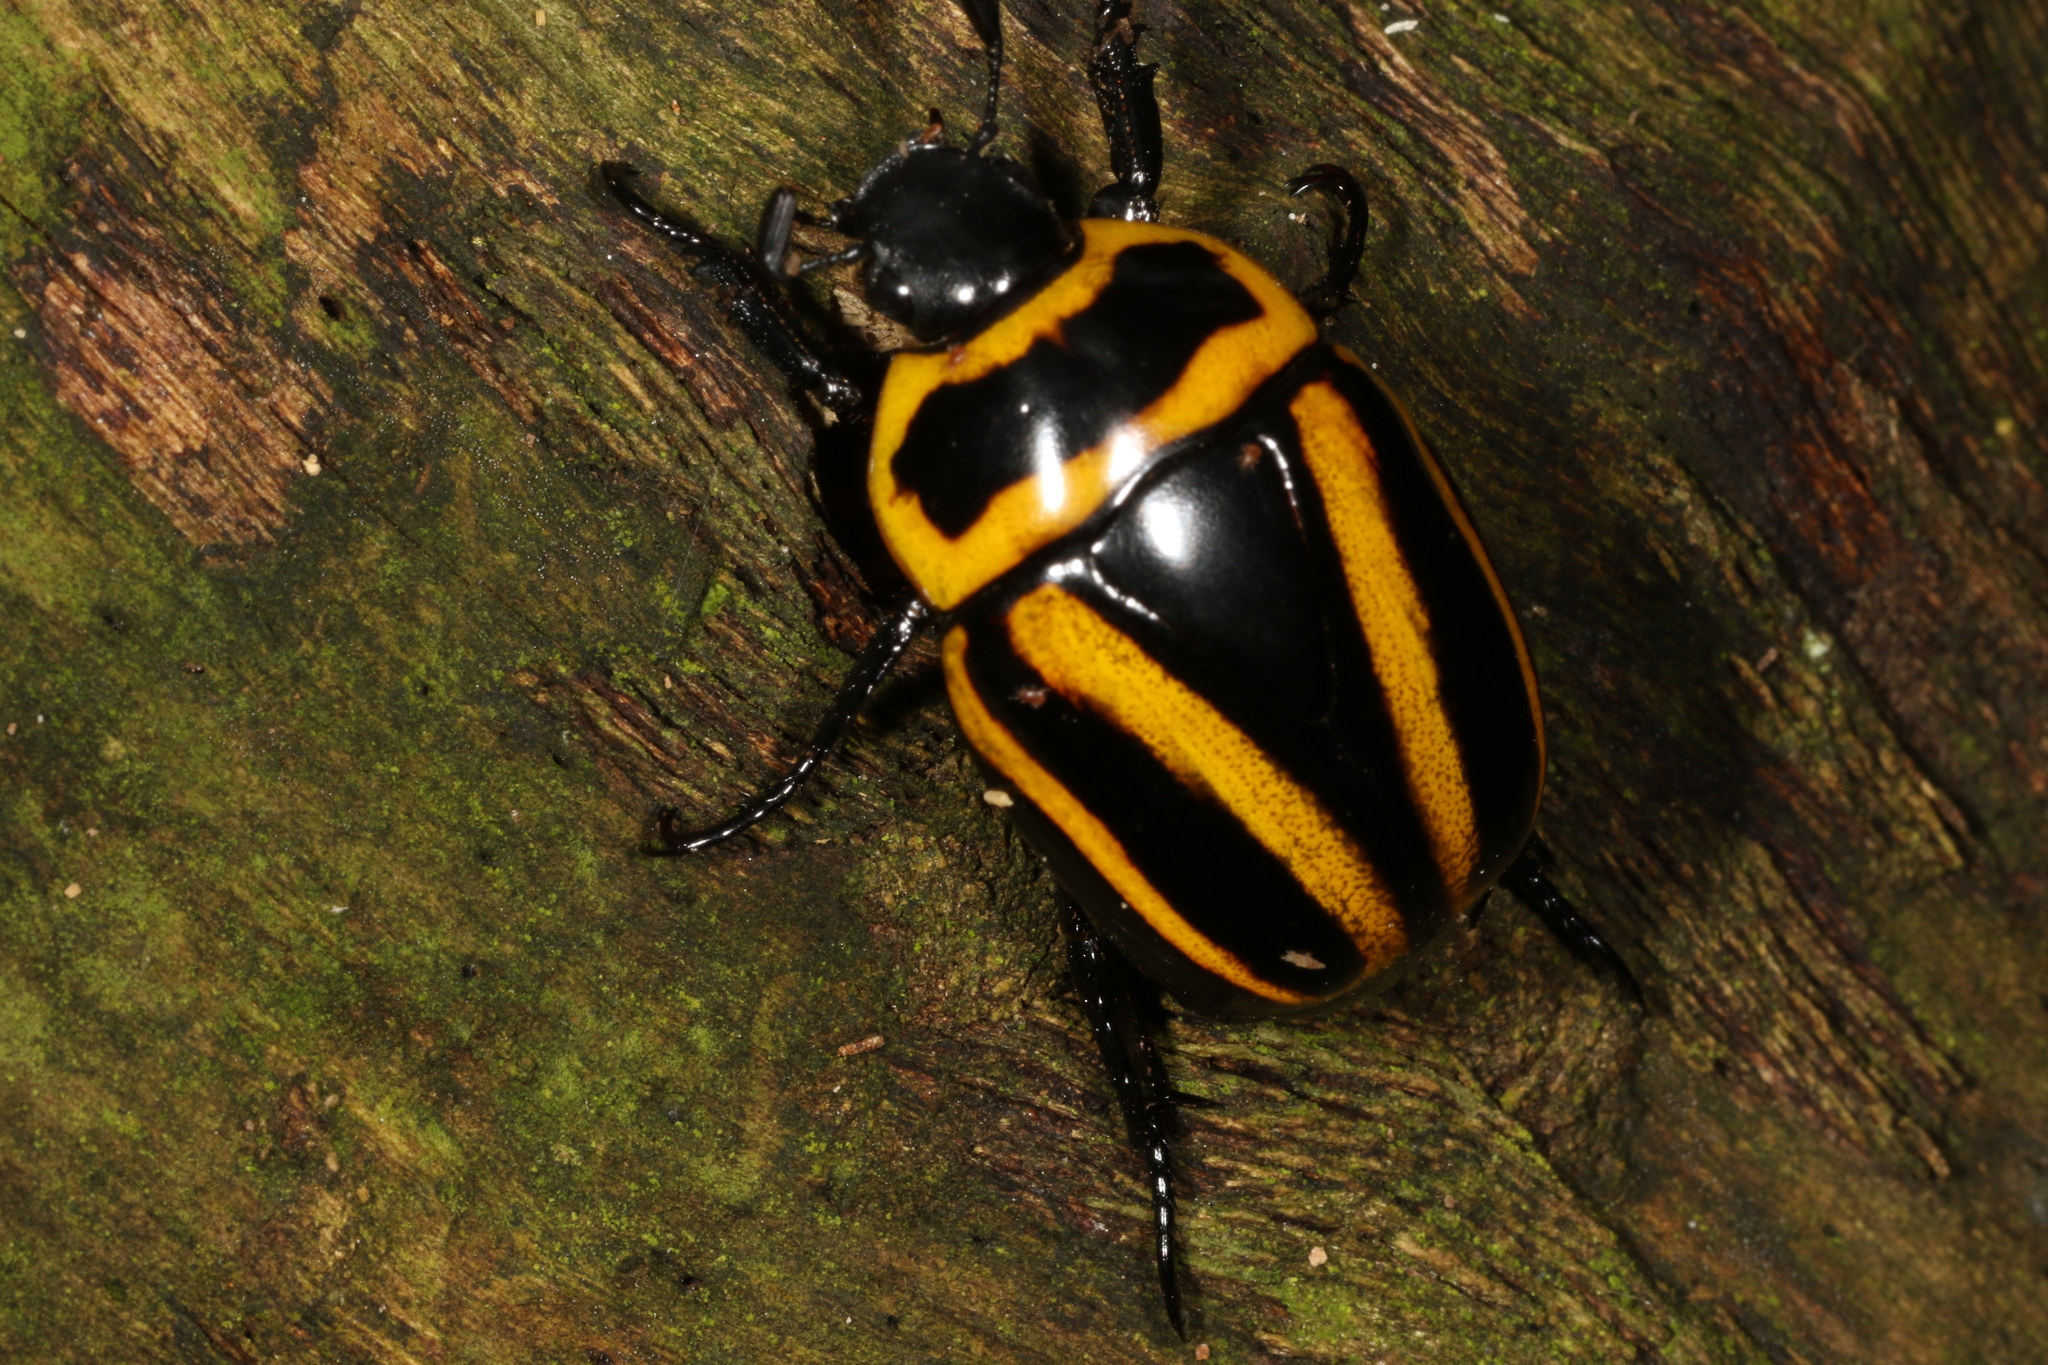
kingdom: Animalia
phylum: Arthropoda
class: Insecta
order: Coleoptera
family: Scarabaeidae
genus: Macraspis
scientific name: Macraspis cincta
